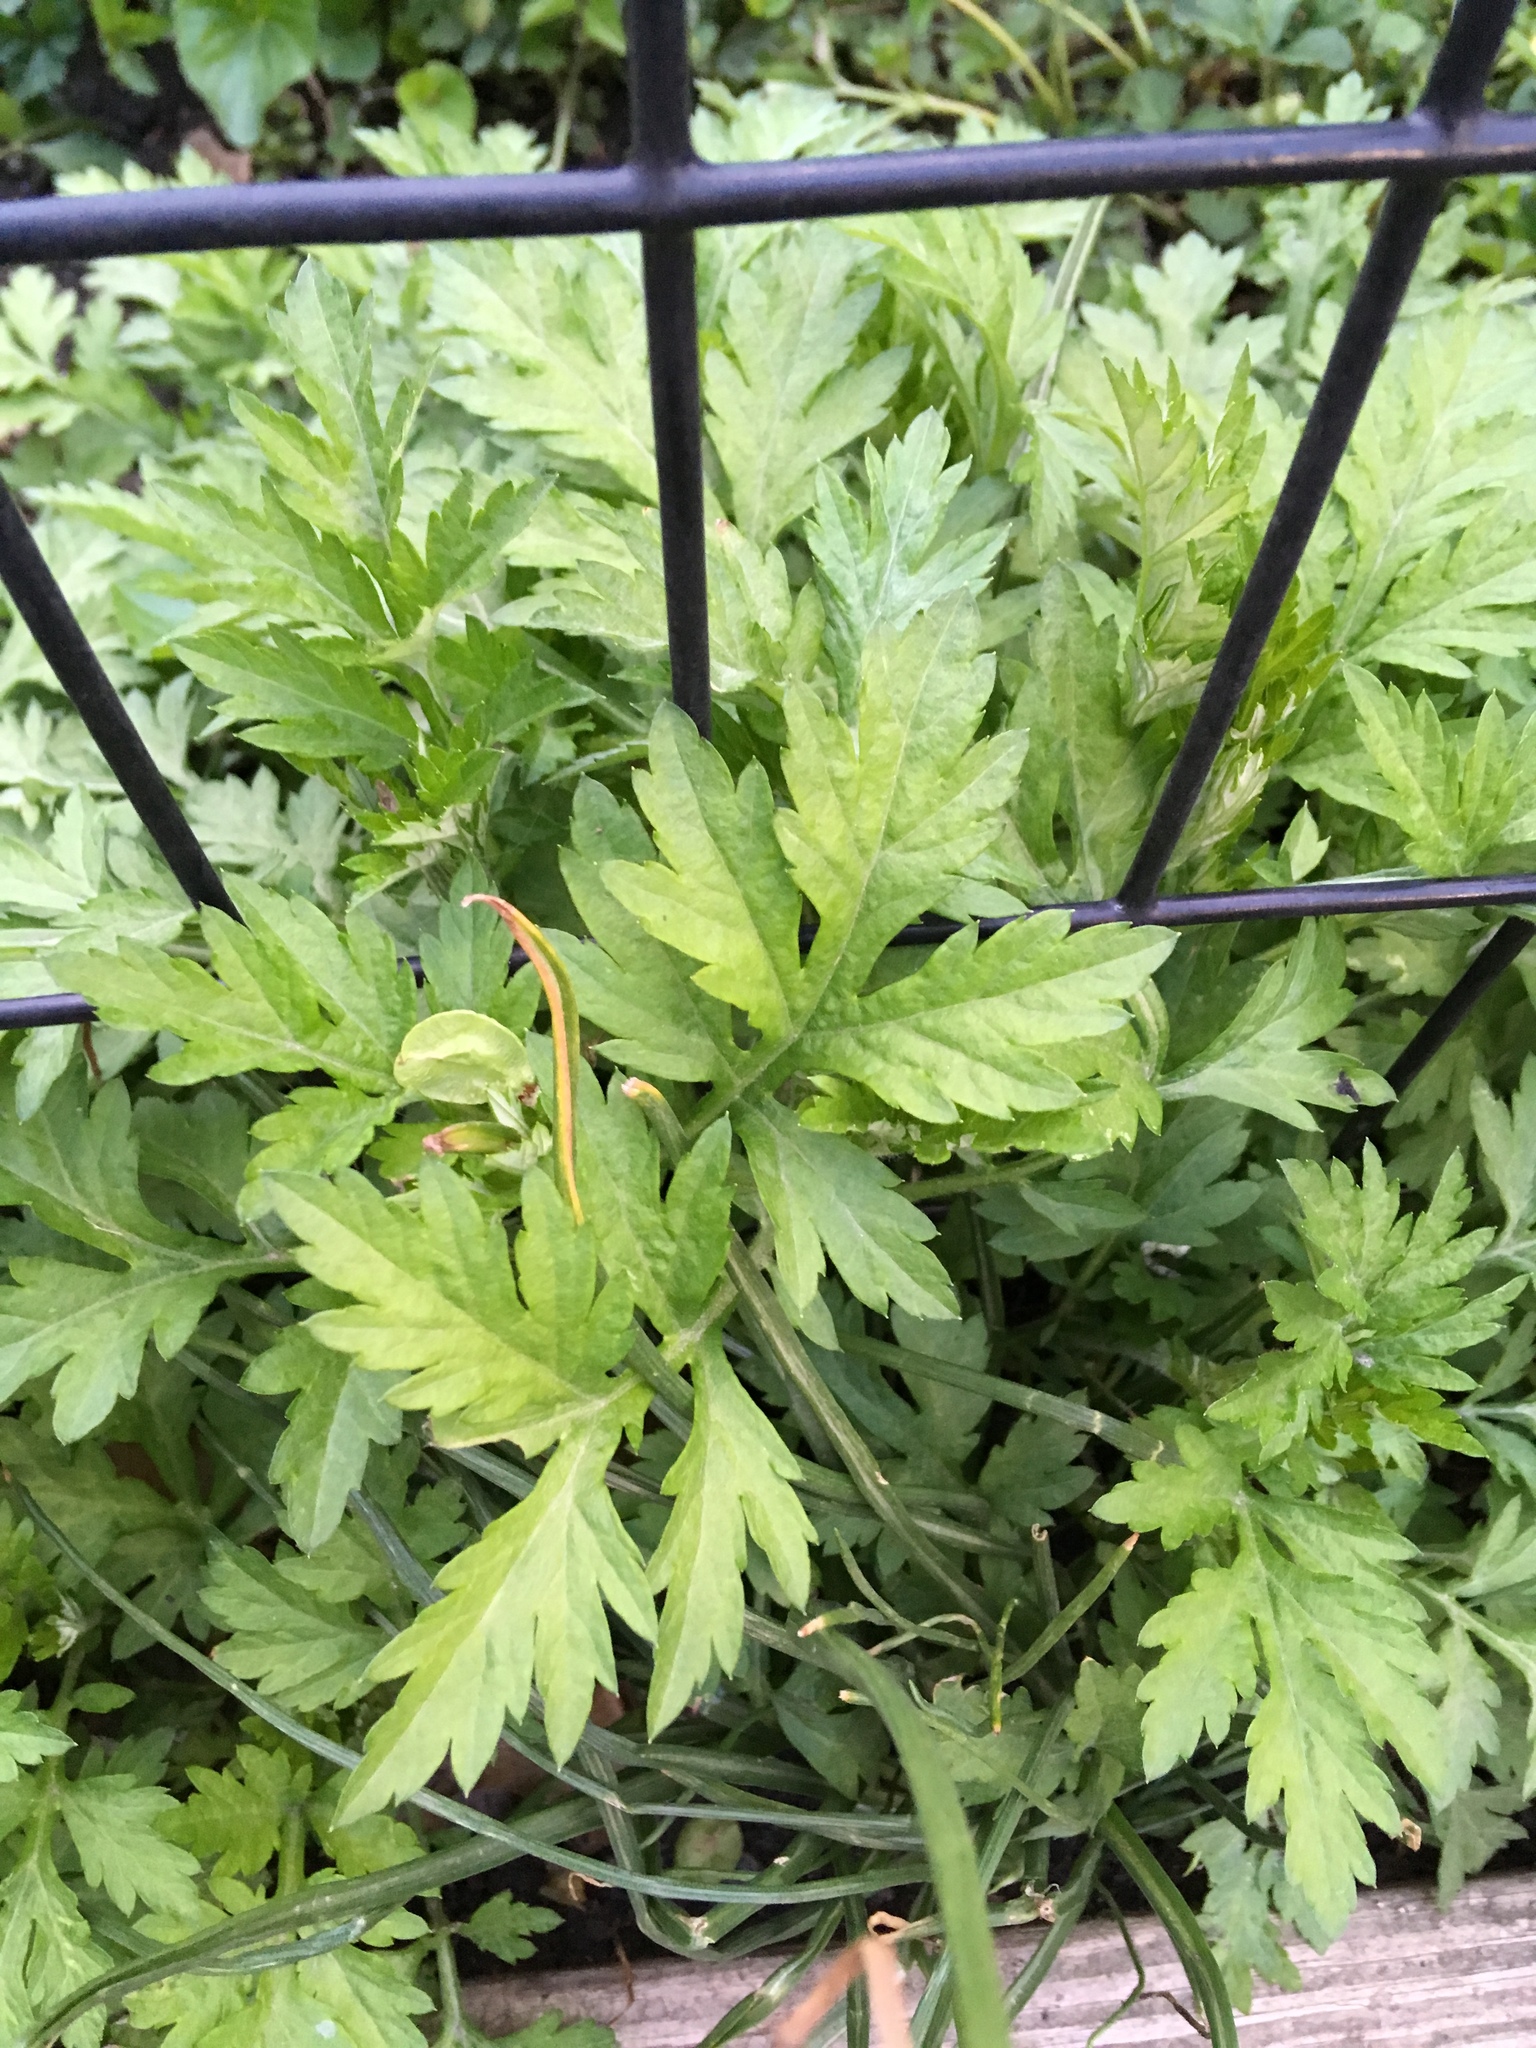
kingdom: Plantae
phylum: Tracheophyta
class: Magnoliopsida
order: Asterales
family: Asteraceae
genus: Artemisia
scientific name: Artemisia vulgaris
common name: Mugwort
